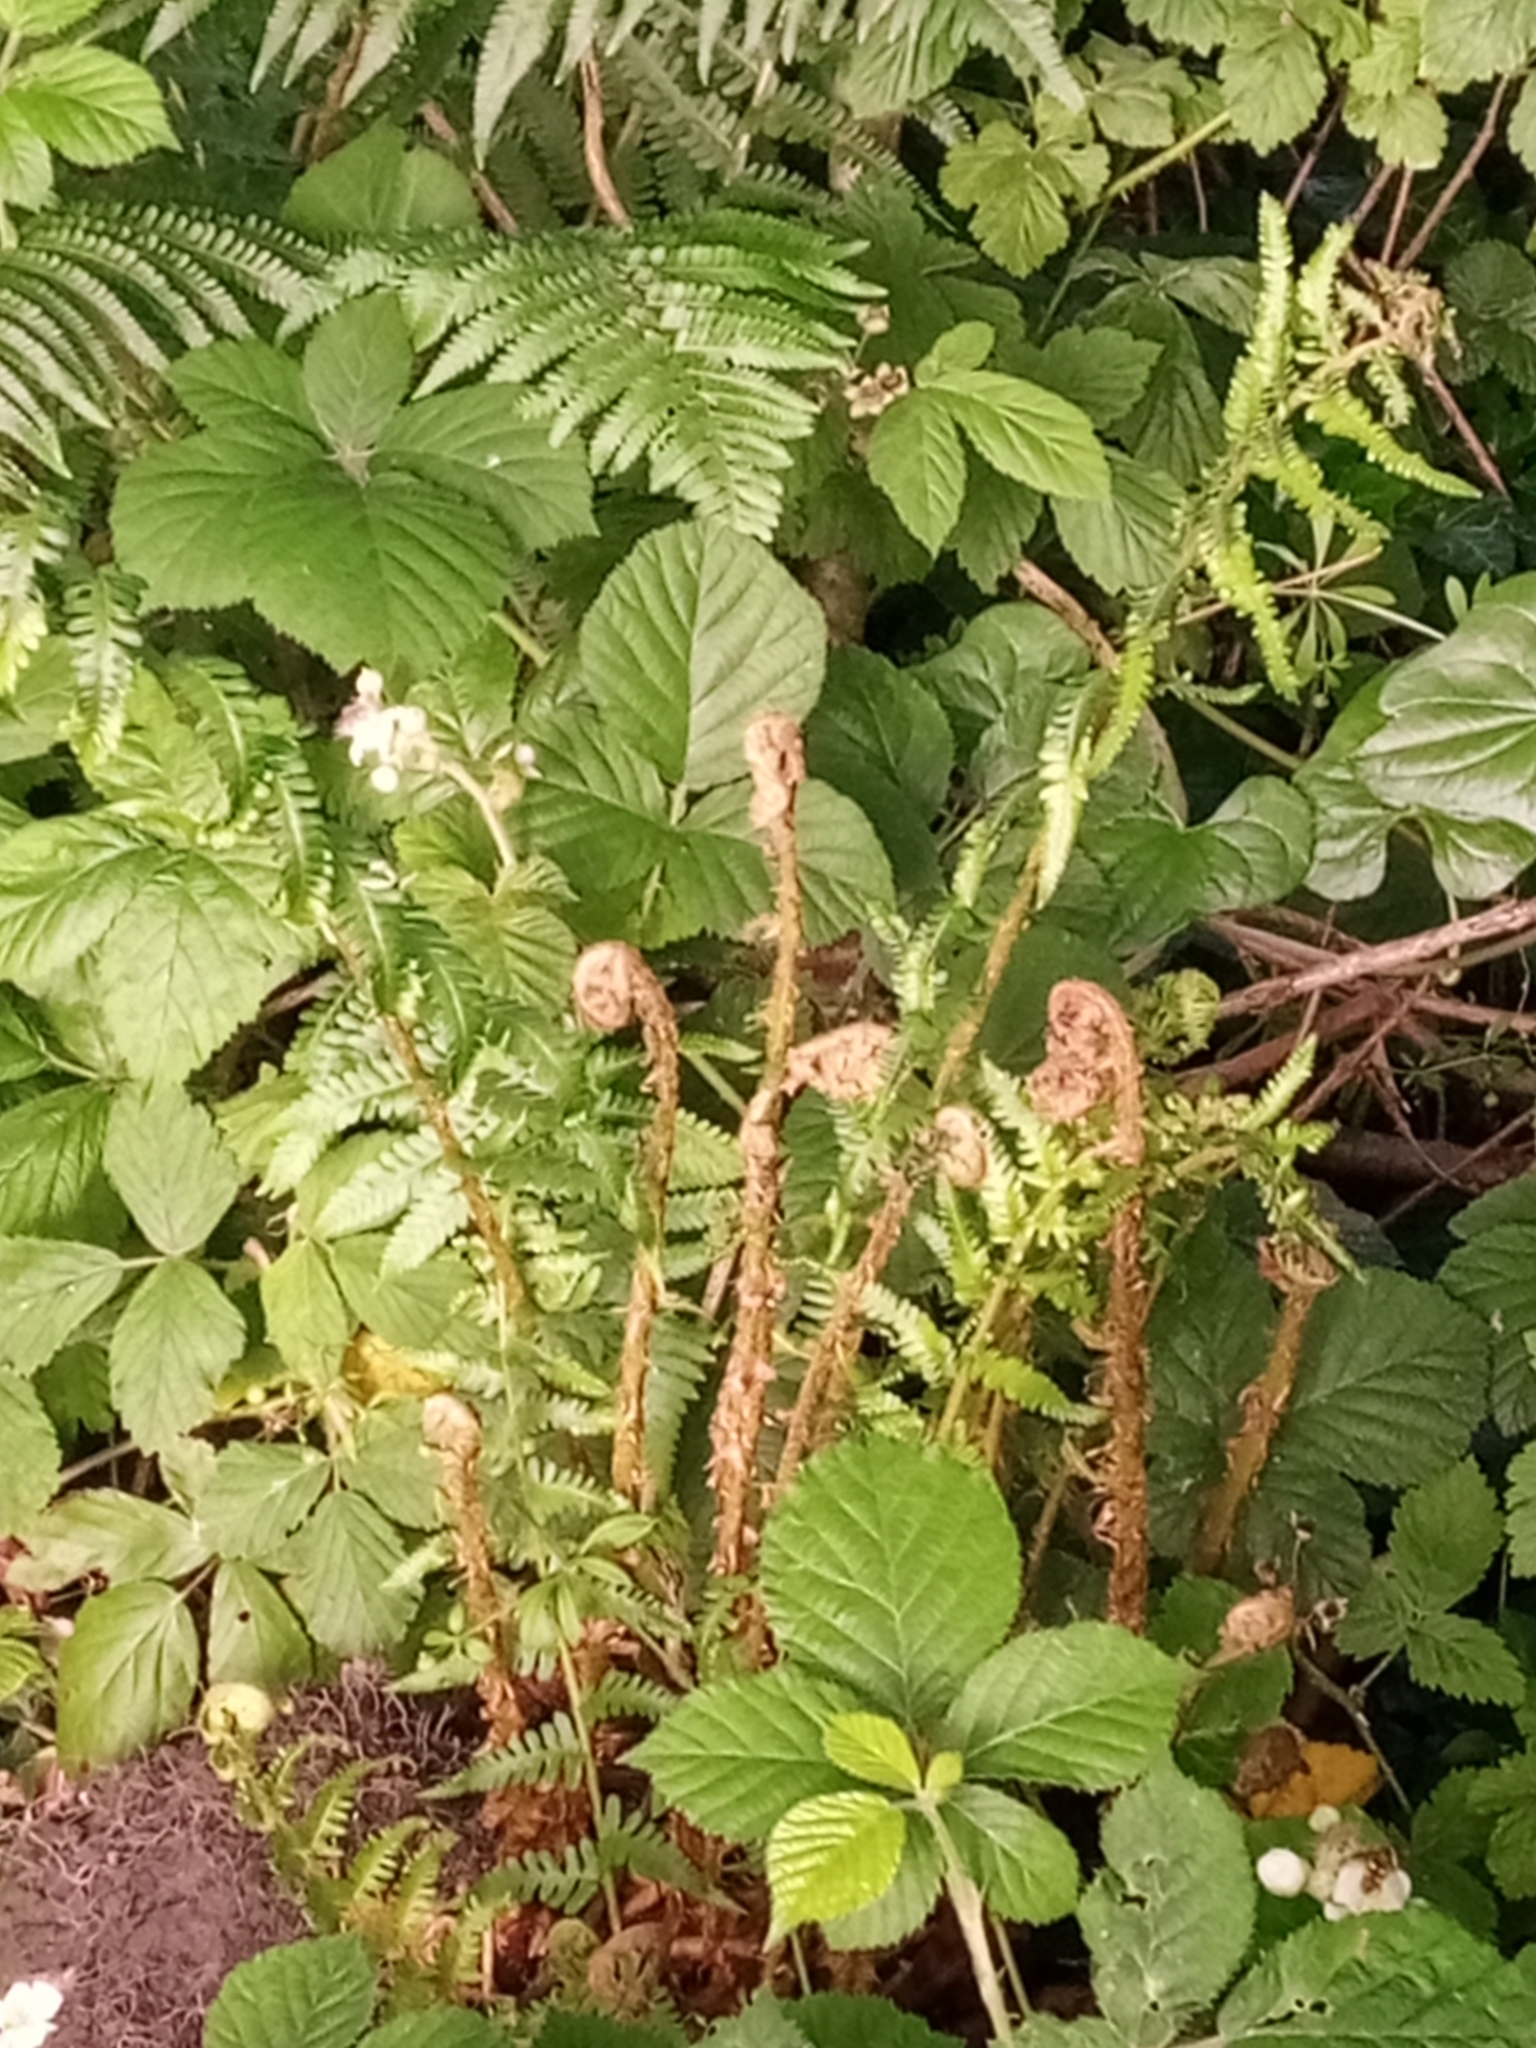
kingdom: Plantae
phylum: Tracheophyta
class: Polypodiopsida
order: Polypodiales
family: Dryopteridaceae
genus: Dryopteris
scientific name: Dryopteris filix-mas
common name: Male fern
